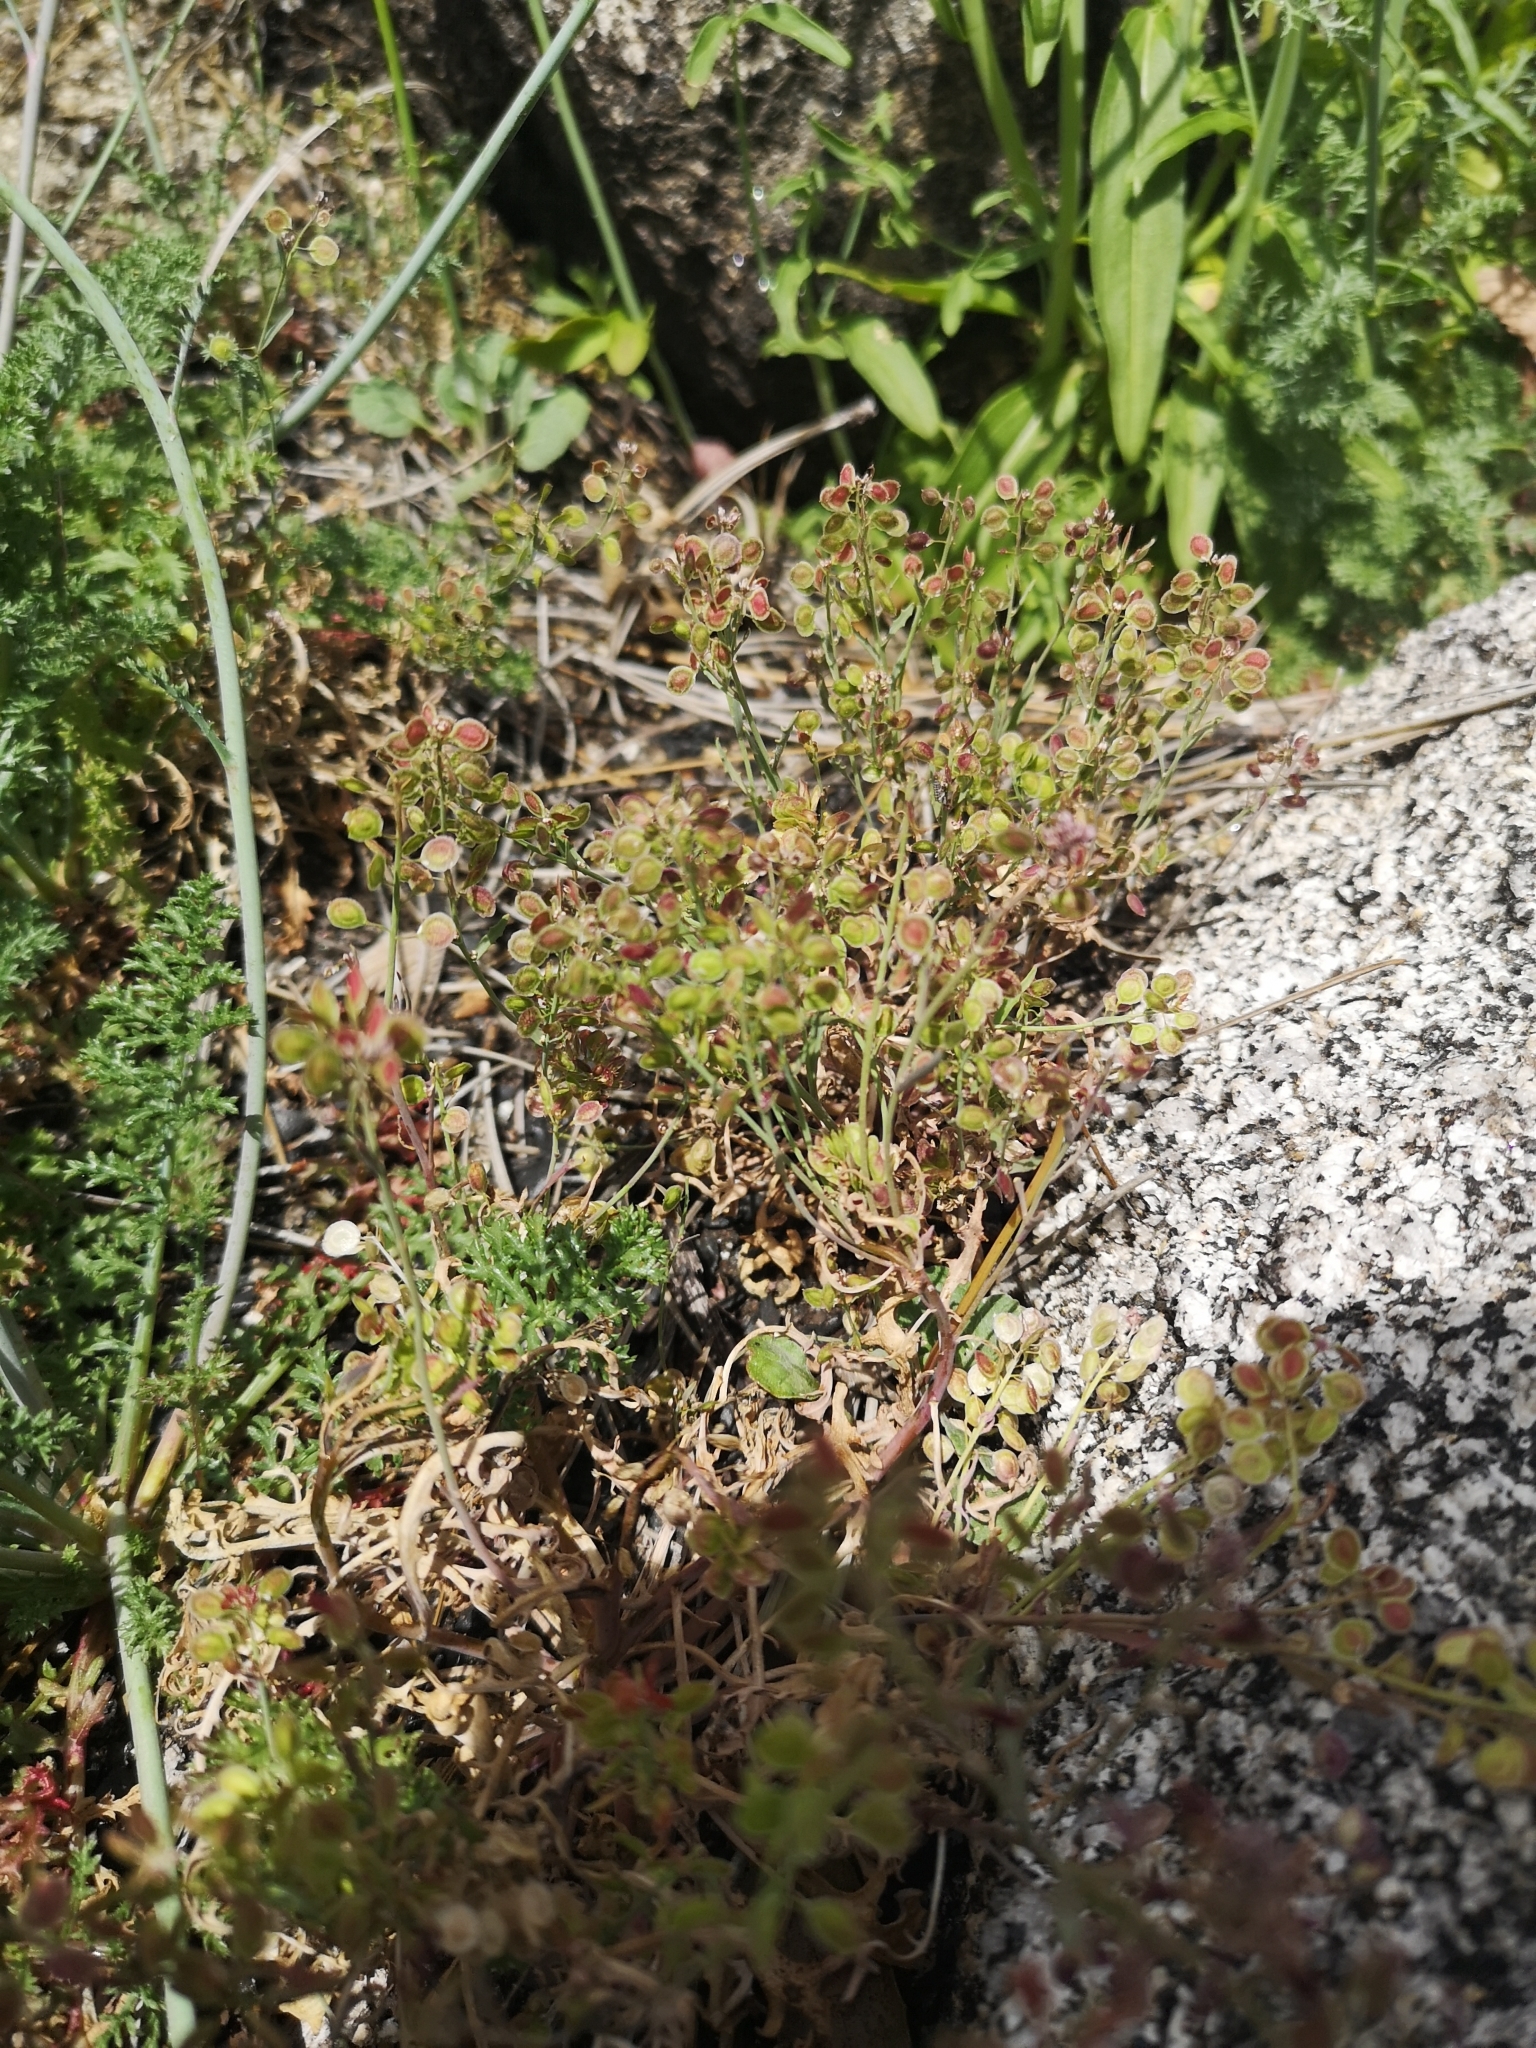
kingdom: Plantae
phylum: Tracheophyta
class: Magnoliopsida
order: Brassicales
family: Brassicaceae
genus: Thysanocarpus
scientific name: Thysanocarpus rigidus
